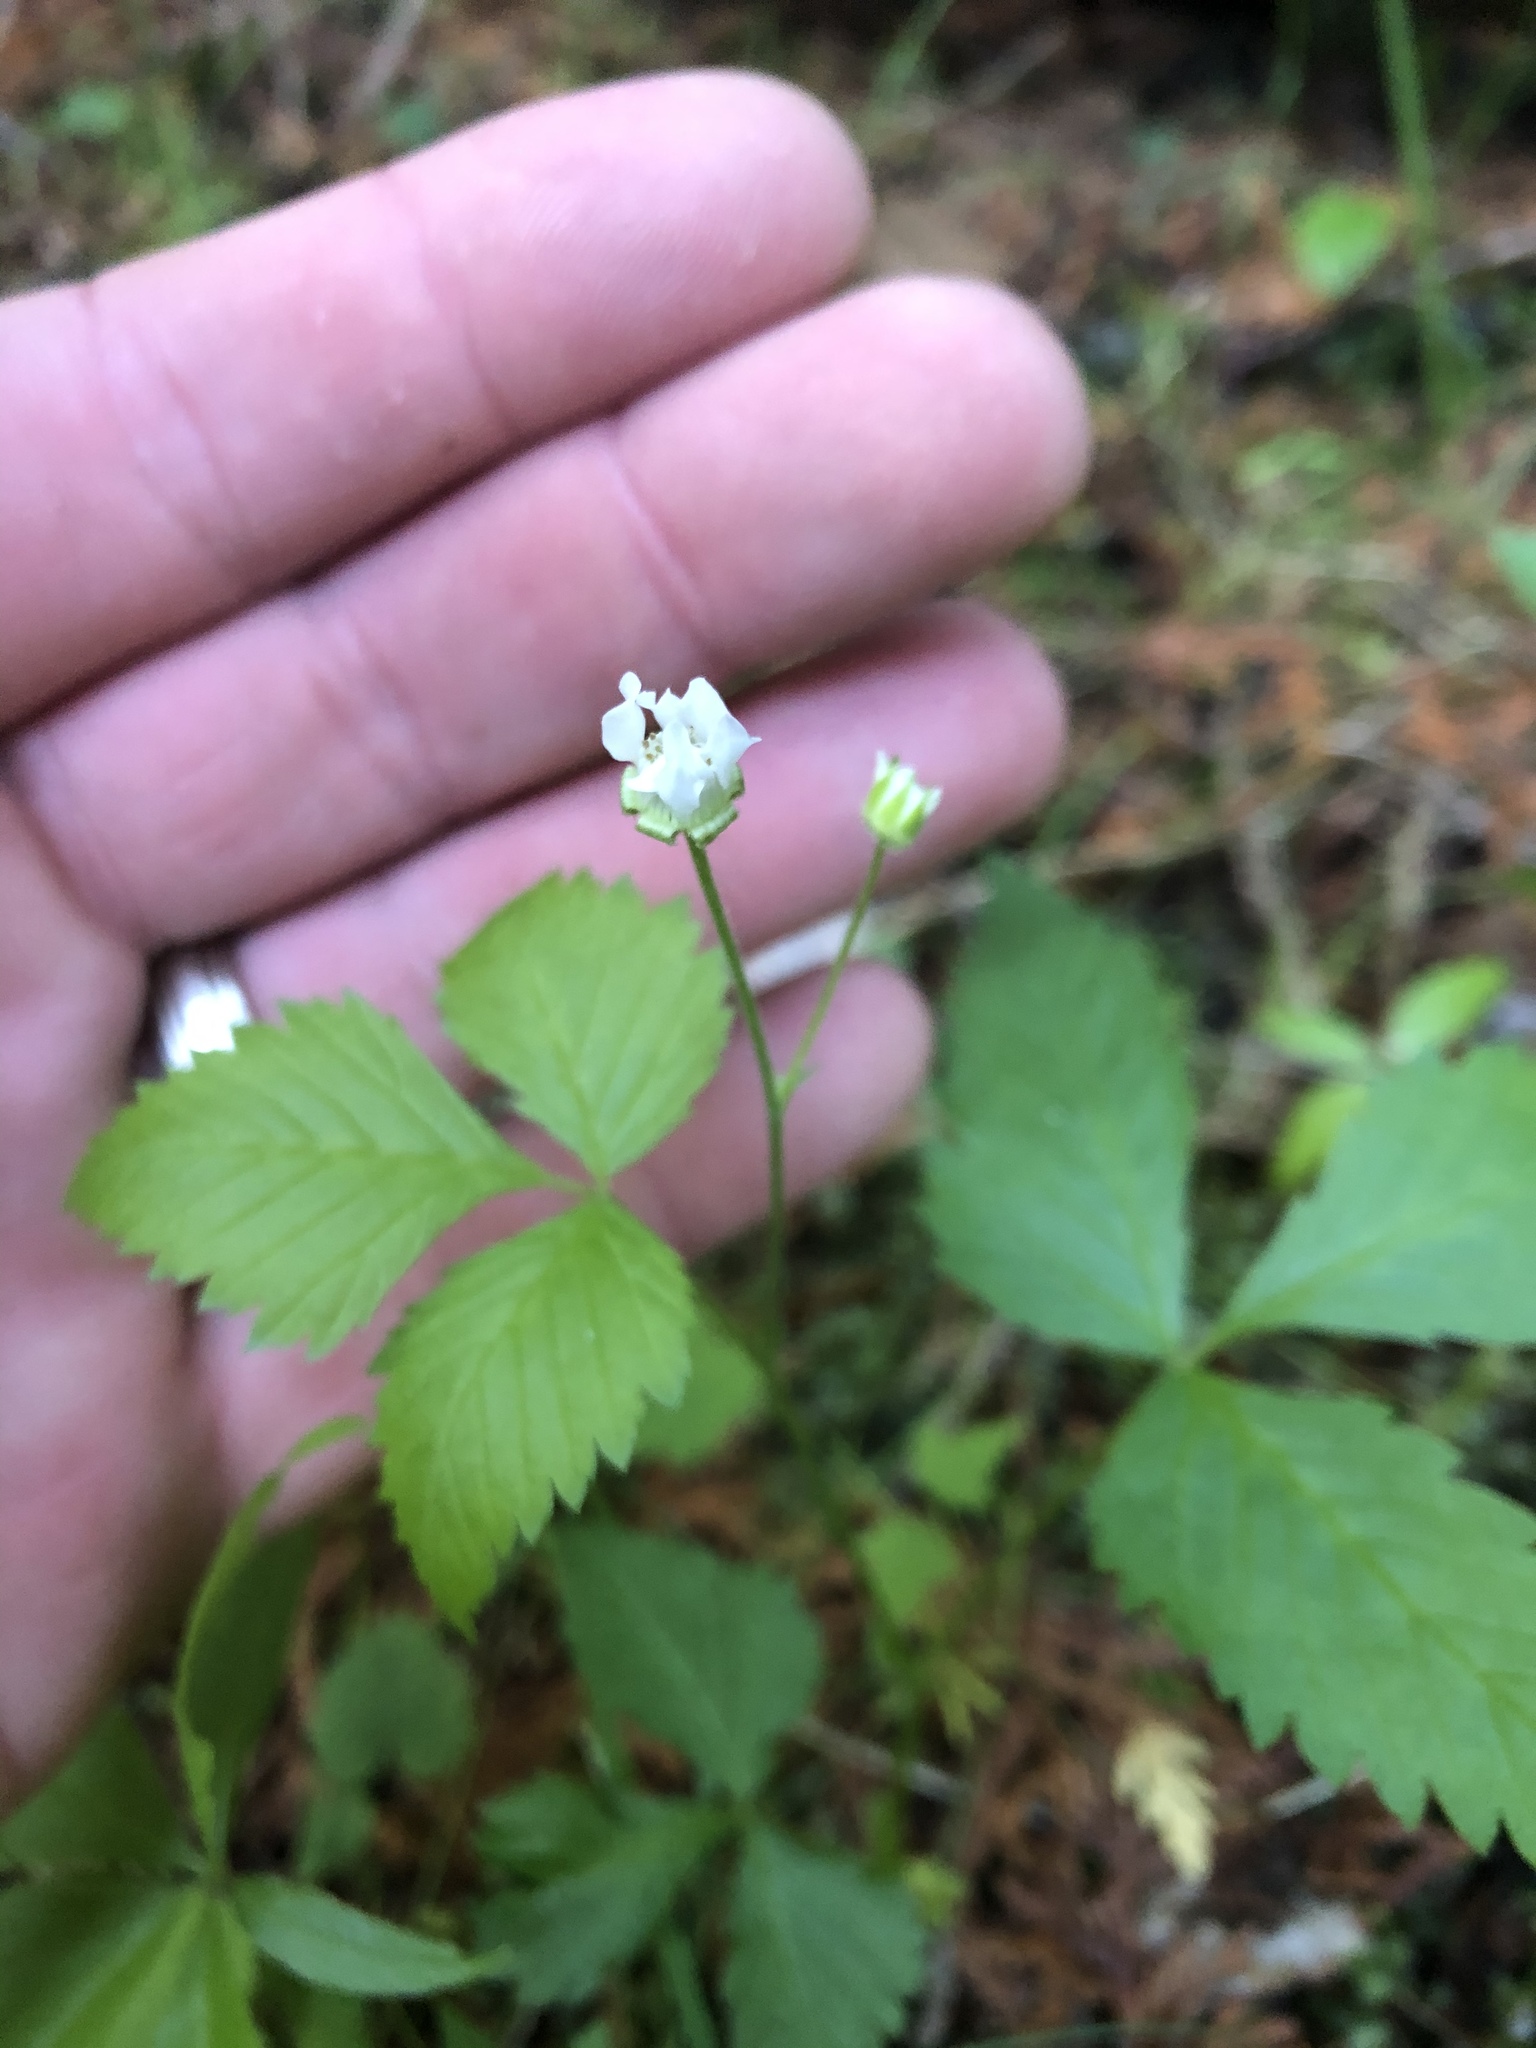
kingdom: Plantae
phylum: Tracheophyta
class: Magnoliopsida
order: Rosales
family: Rosaceae
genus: Rubus
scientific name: Rubus pubescens
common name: Dwarf raspberry
